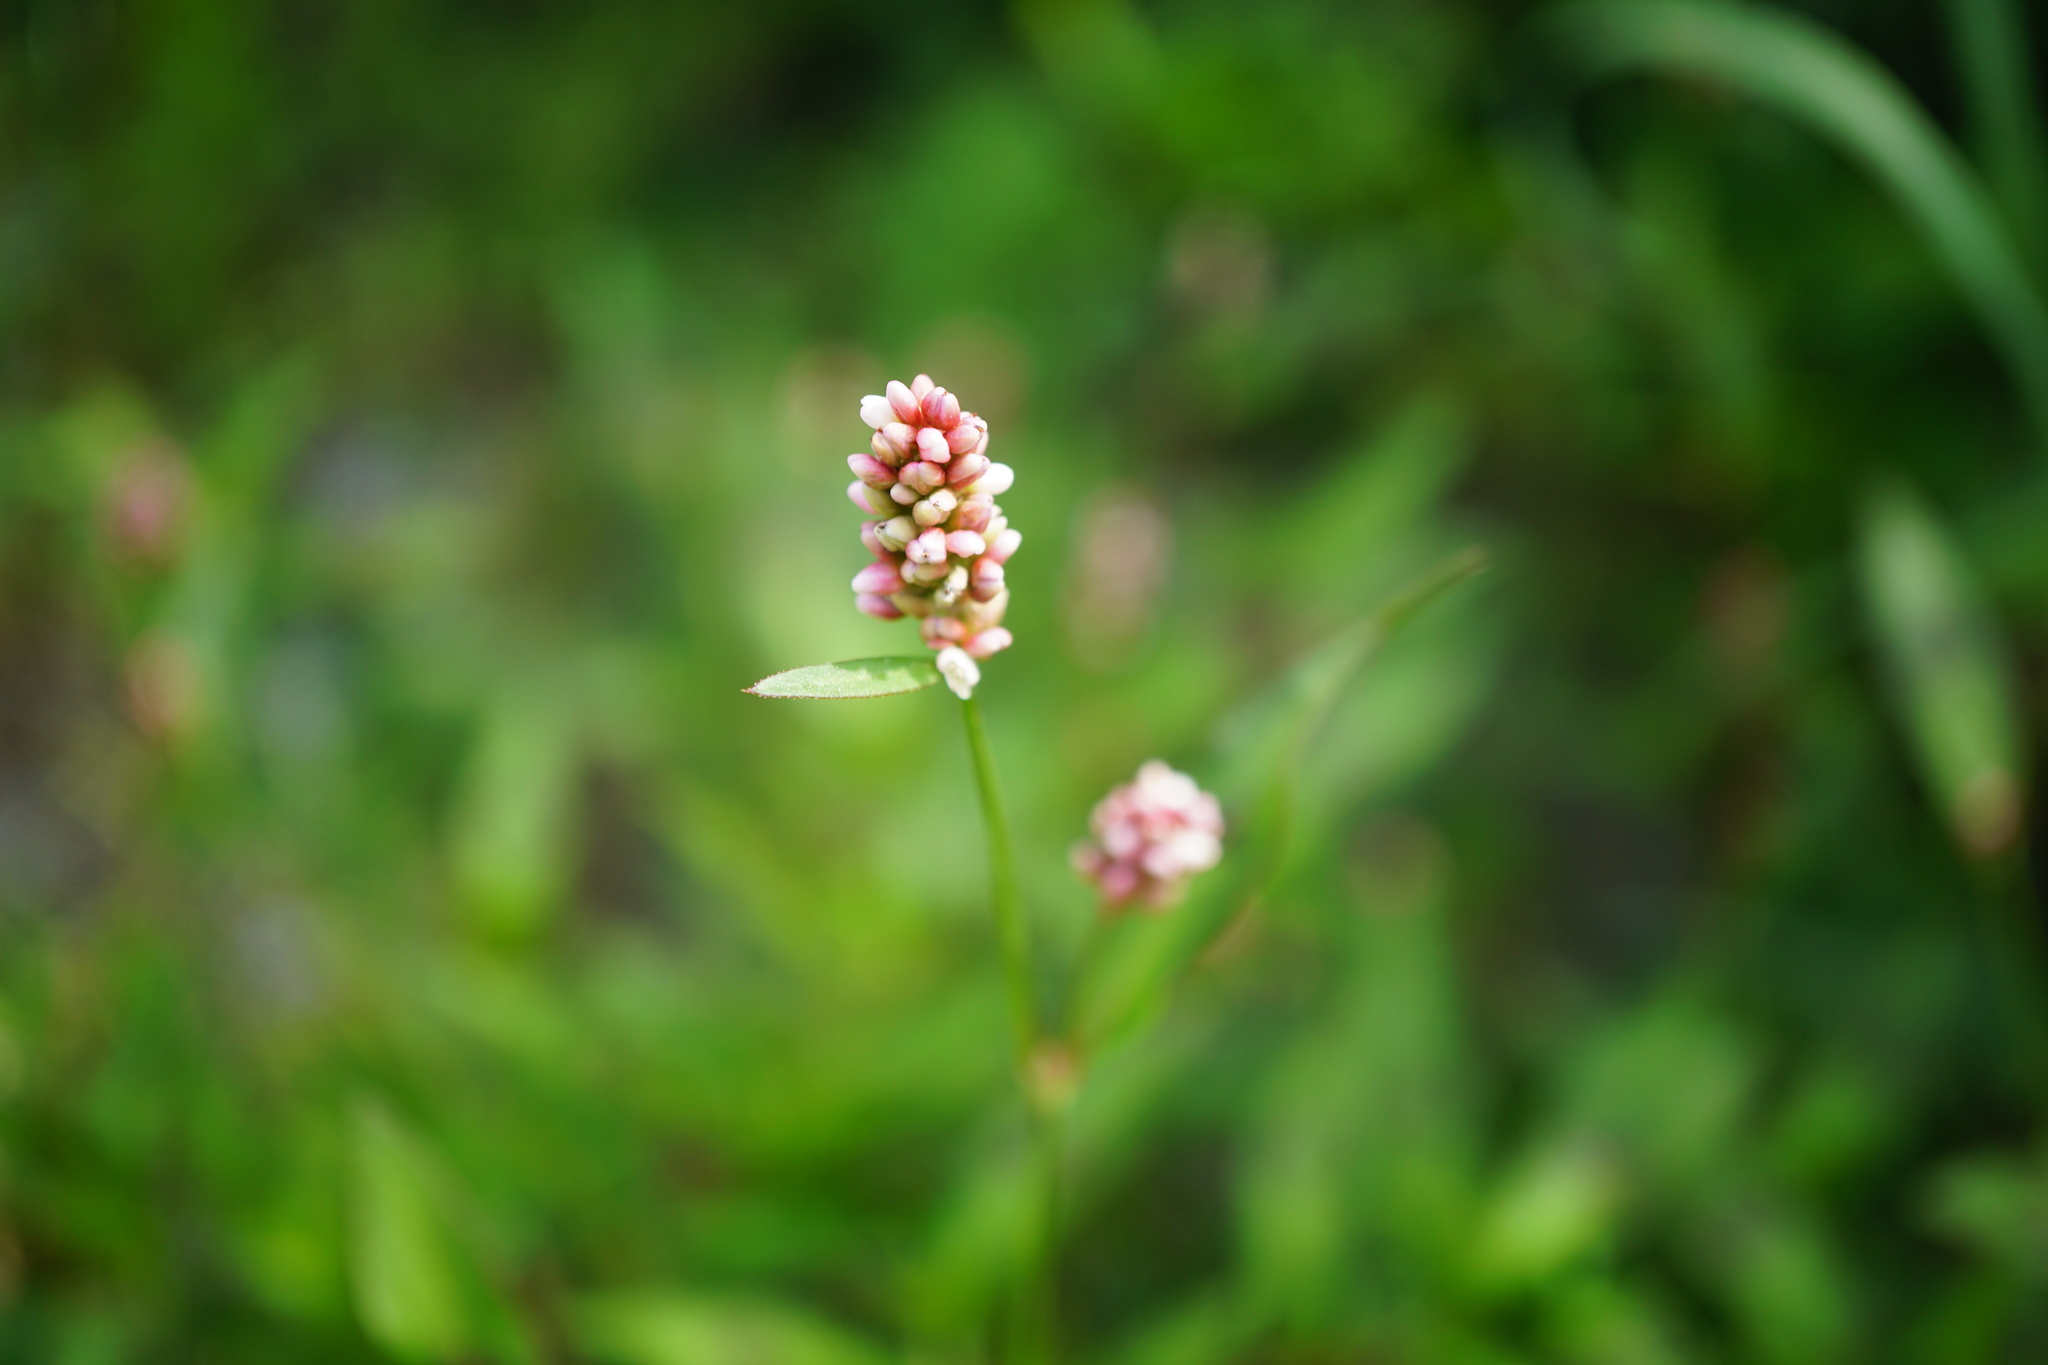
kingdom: Plantae
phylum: Tracheophyta
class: Magnoliopsida
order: Caryophyllales
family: Polygonaceae
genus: Persicaria
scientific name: Persicaria maculosa
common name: Redshank
